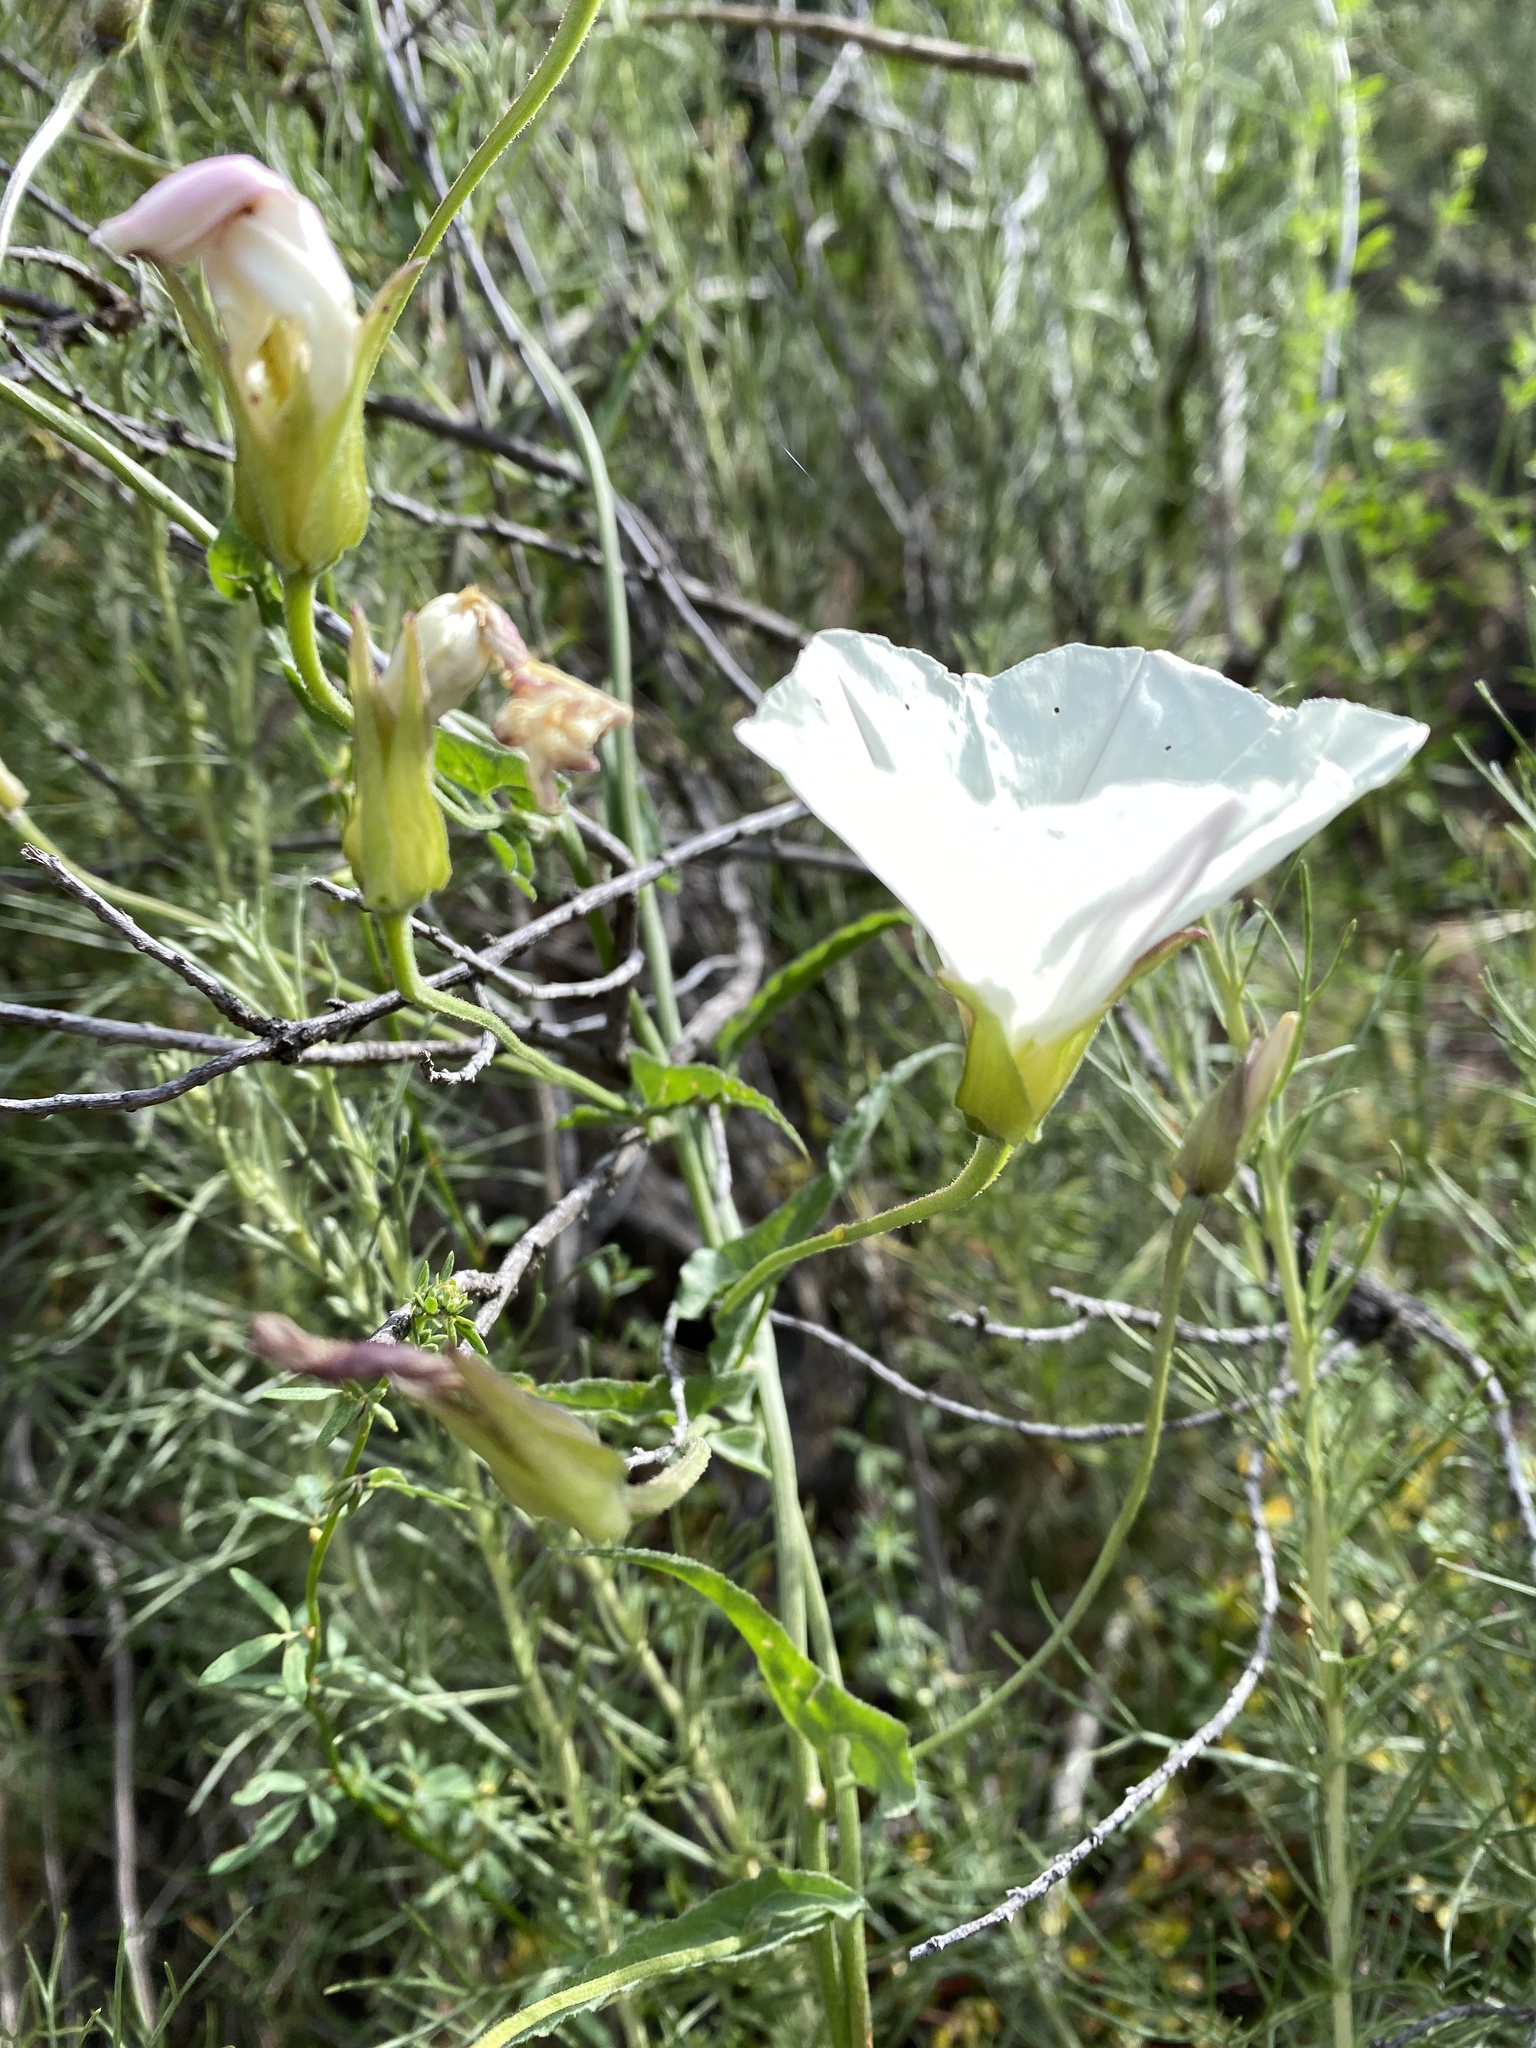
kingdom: Plantae
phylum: Tracheophyta
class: Magnoliopsida
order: Solanales
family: Convolvulaceae
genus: Calystegia
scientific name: Calystegia macrostegia
